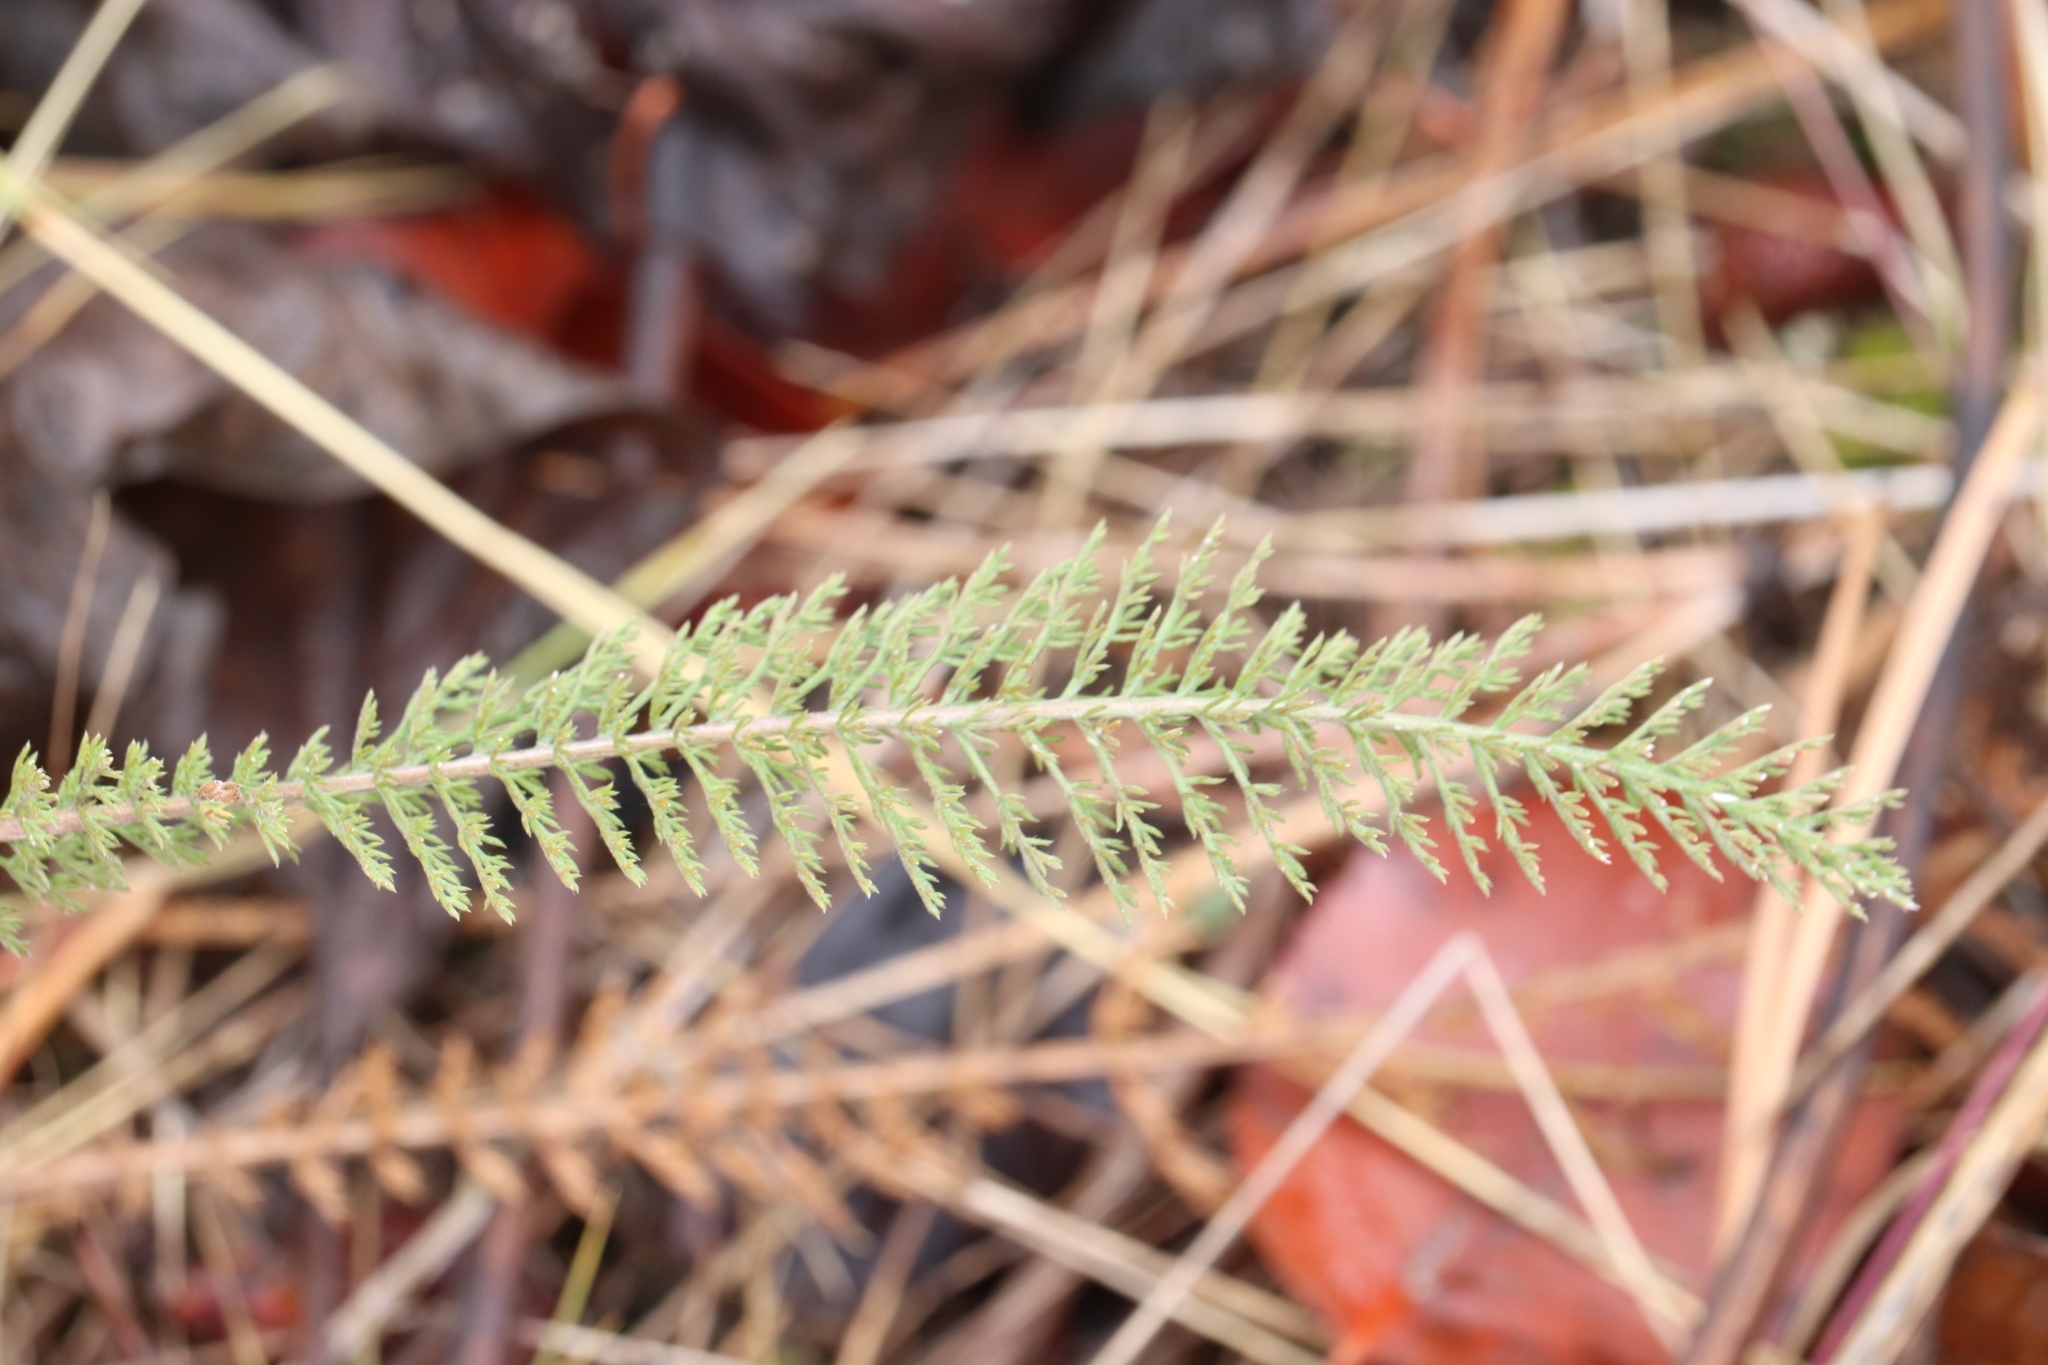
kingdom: Plantae
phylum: Tracheophyta
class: Magnoliopsida
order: Asterales
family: Asteraceae
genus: Achillea
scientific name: Achillea millefolium
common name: Yarrow
